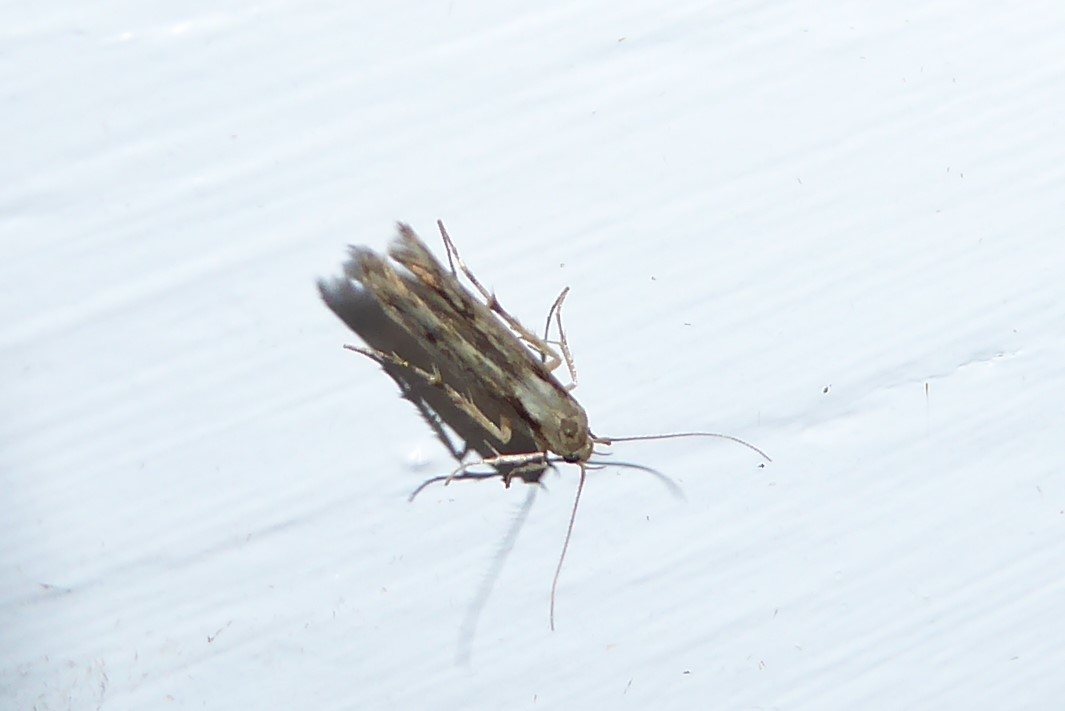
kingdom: Animalia
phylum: Arthropoda
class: Insecta
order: Lepidoptera
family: Stathmopodidae
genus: Stathmopoda
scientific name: Stathmopoda plumbiflua
